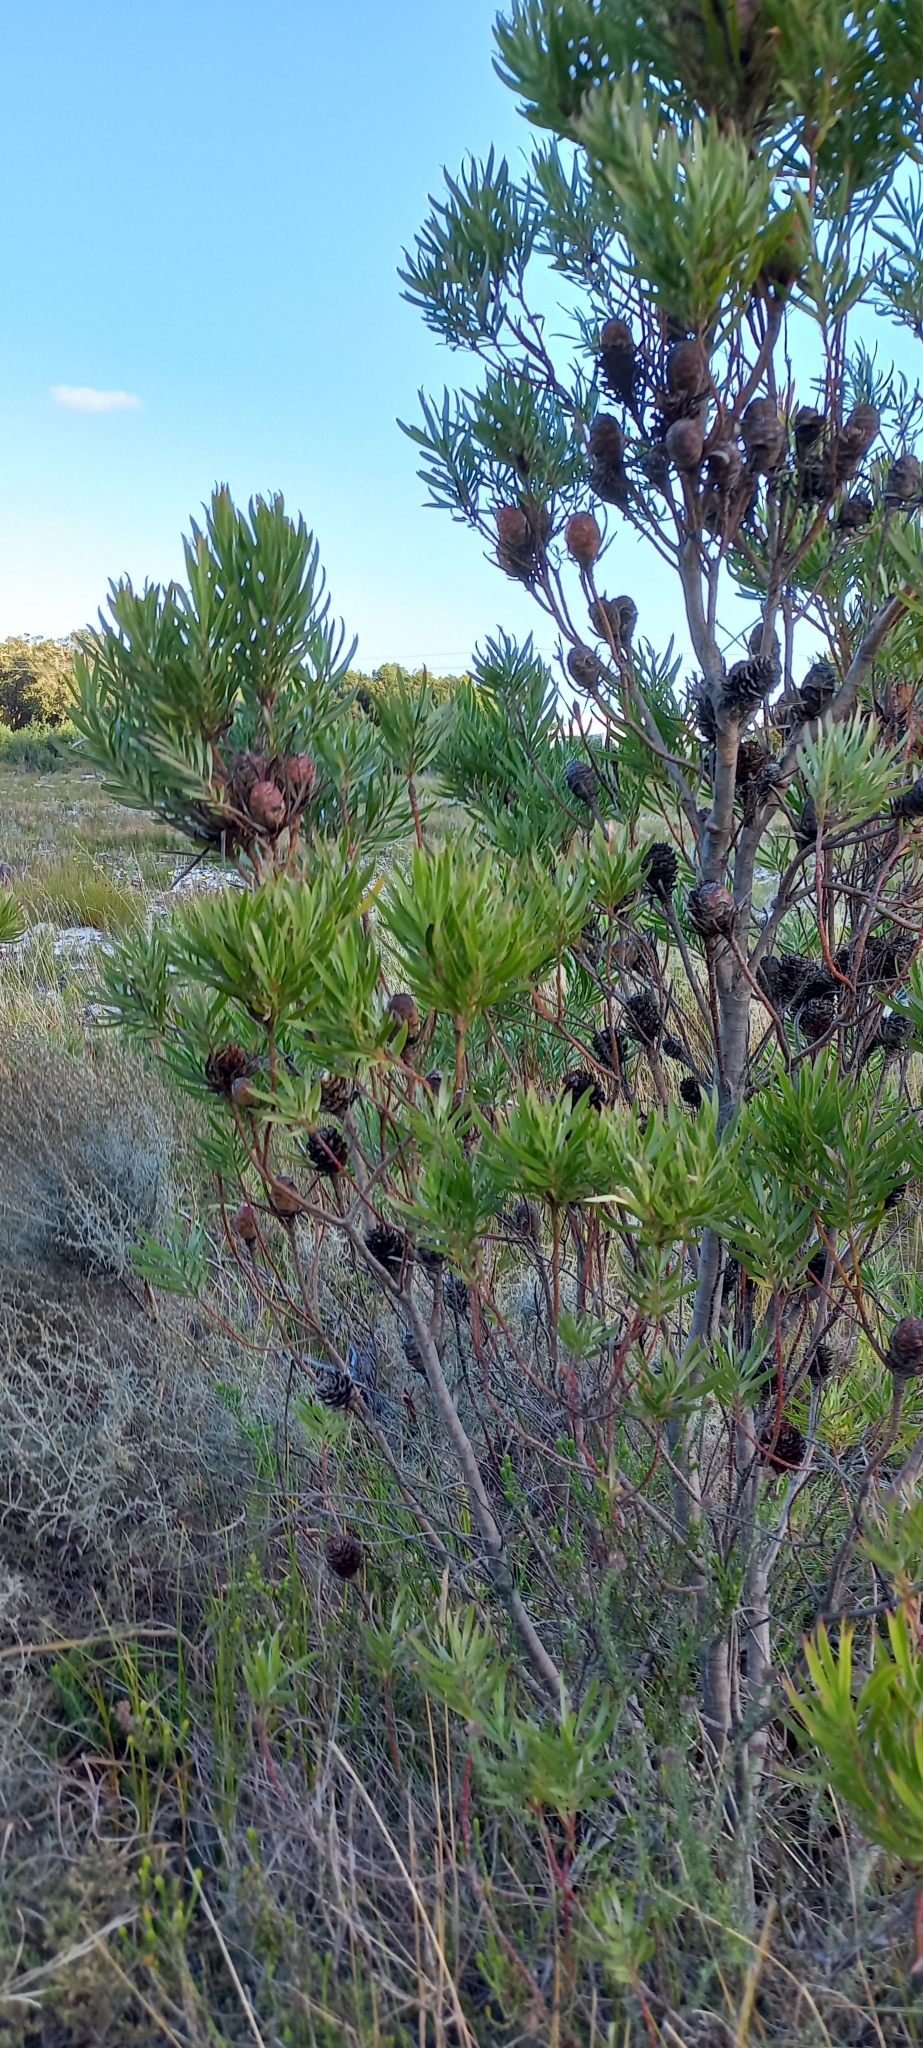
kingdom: Plantae
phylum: Tracheophyta
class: Magnoliopsida
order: Proteales
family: Proteaceae
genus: Leucadendron
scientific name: Leucadendron xanthoconus
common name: Sickle-leaf conebush
